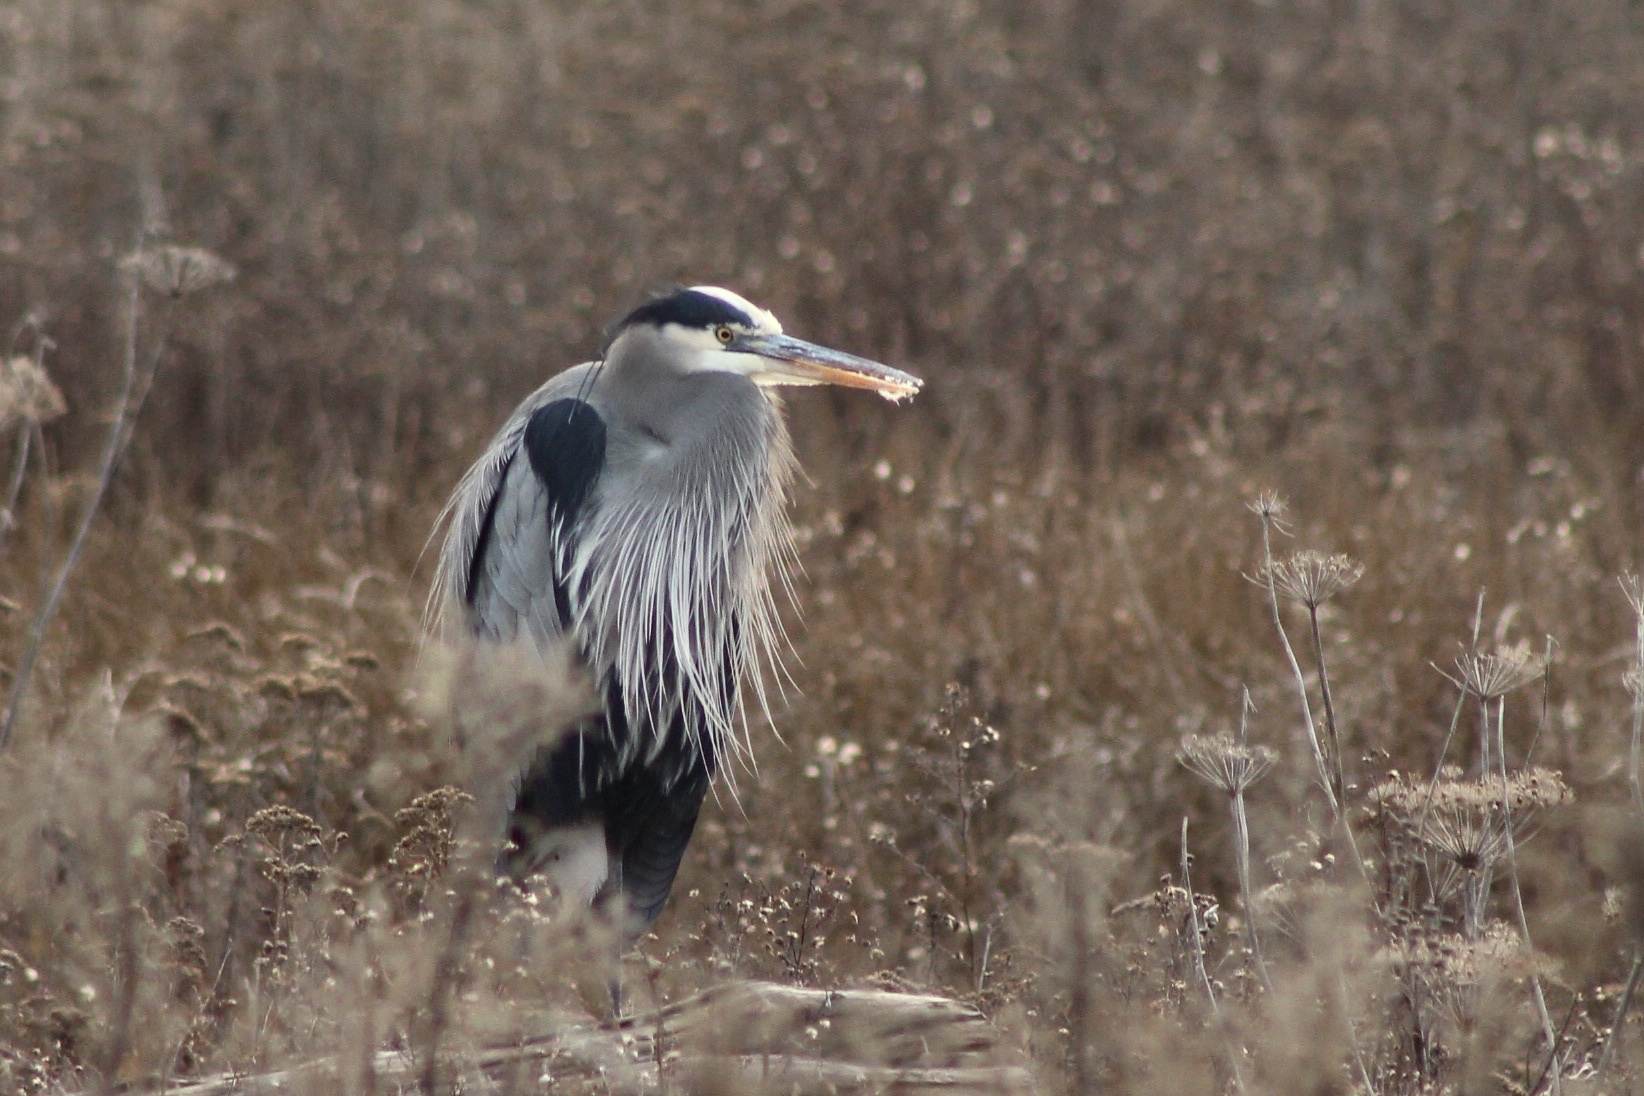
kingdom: Animalia
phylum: Chordata
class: Aves
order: Pelecaniformes
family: Ardeidae
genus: Ardea
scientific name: Ardea herodias
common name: Great blue heron
